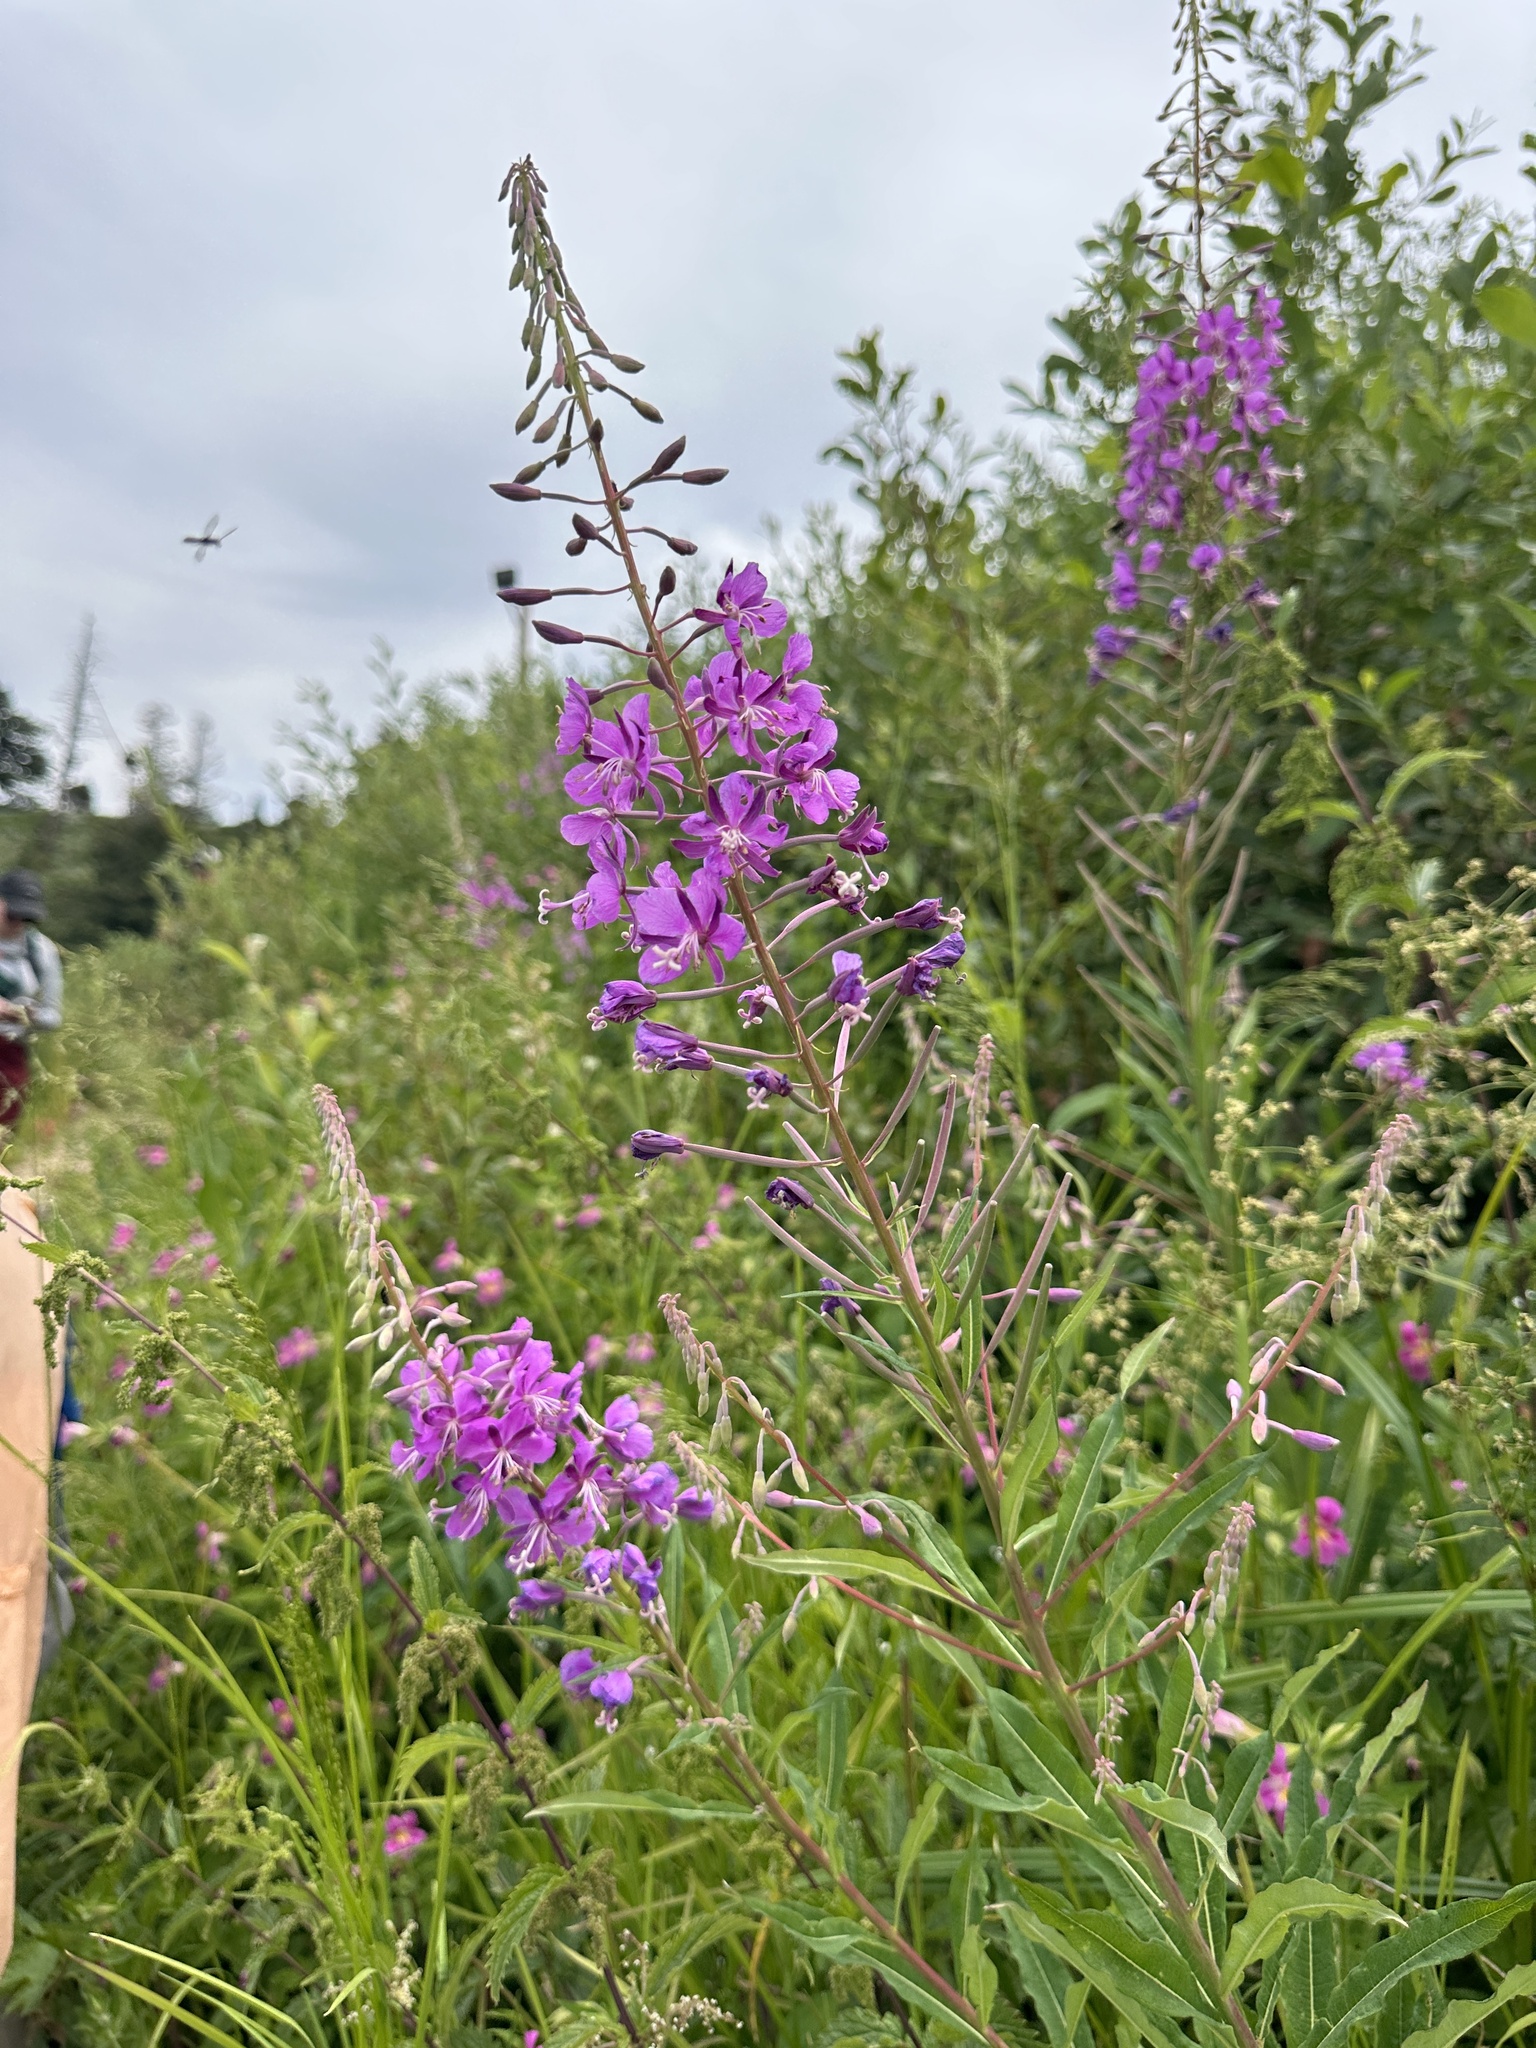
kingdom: Plantae
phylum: Tracheophyta
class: Magnoliopsida
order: Myrtales
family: Onagraceae
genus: Chamaenerion
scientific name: Chamaenerion angustifolium
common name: Fireweed
